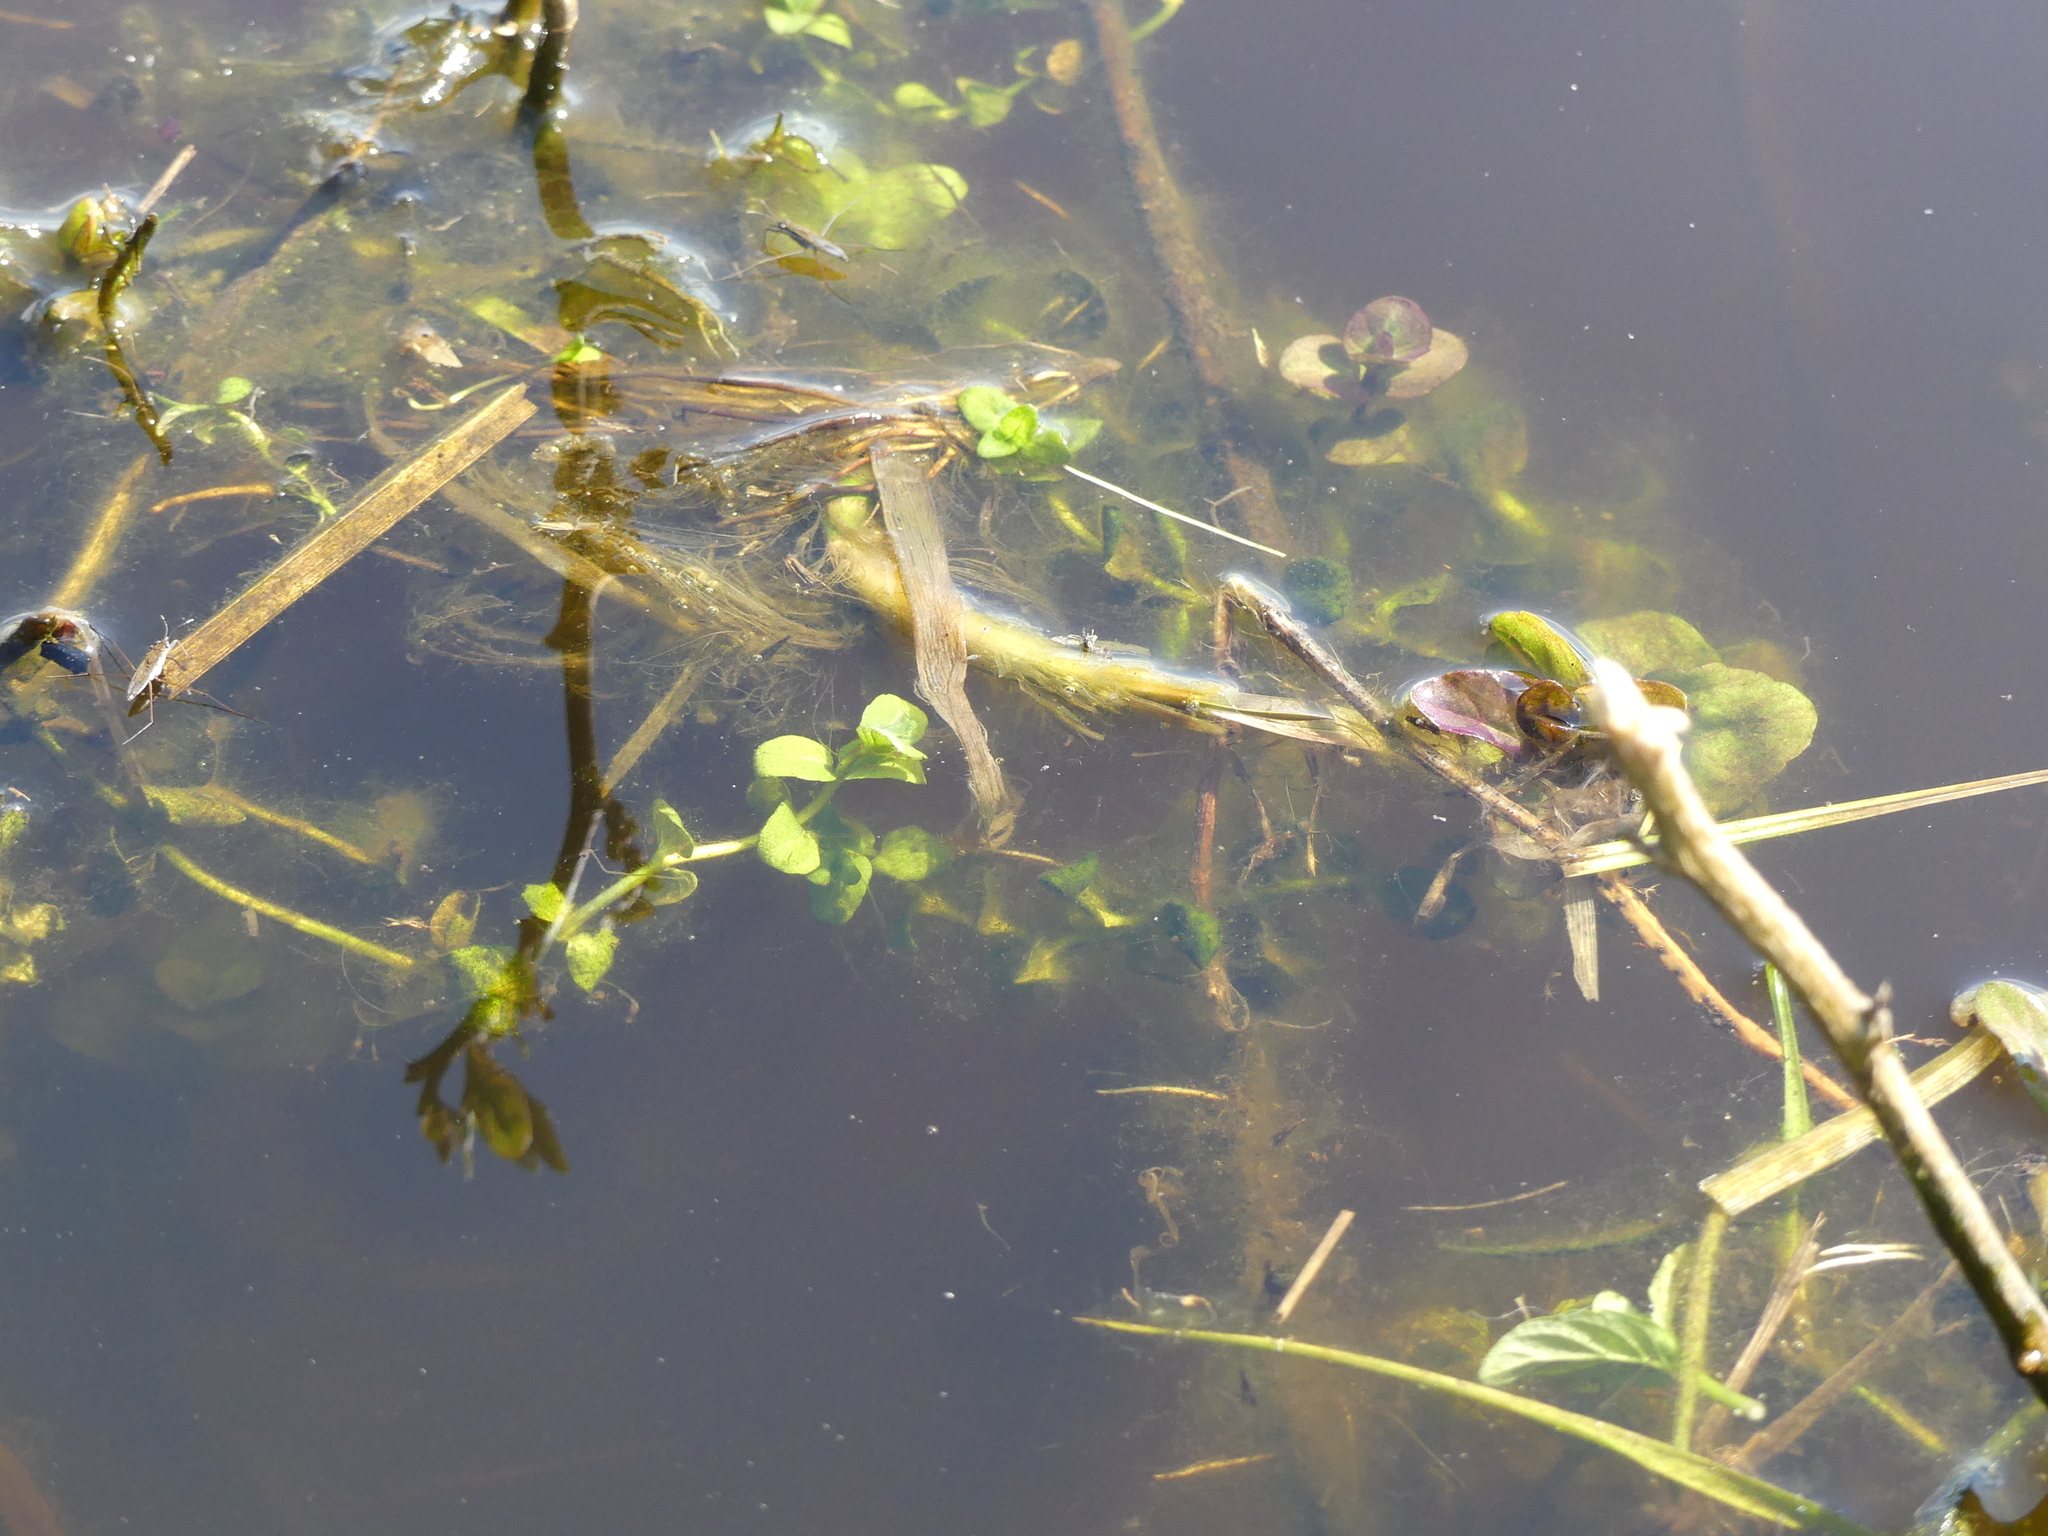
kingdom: Plantae
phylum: Tracheophyta
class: Magnoliopsida
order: Lamiales
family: Lamiaceae
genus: Mentha
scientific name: Mentha aquatica
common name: Water mint
